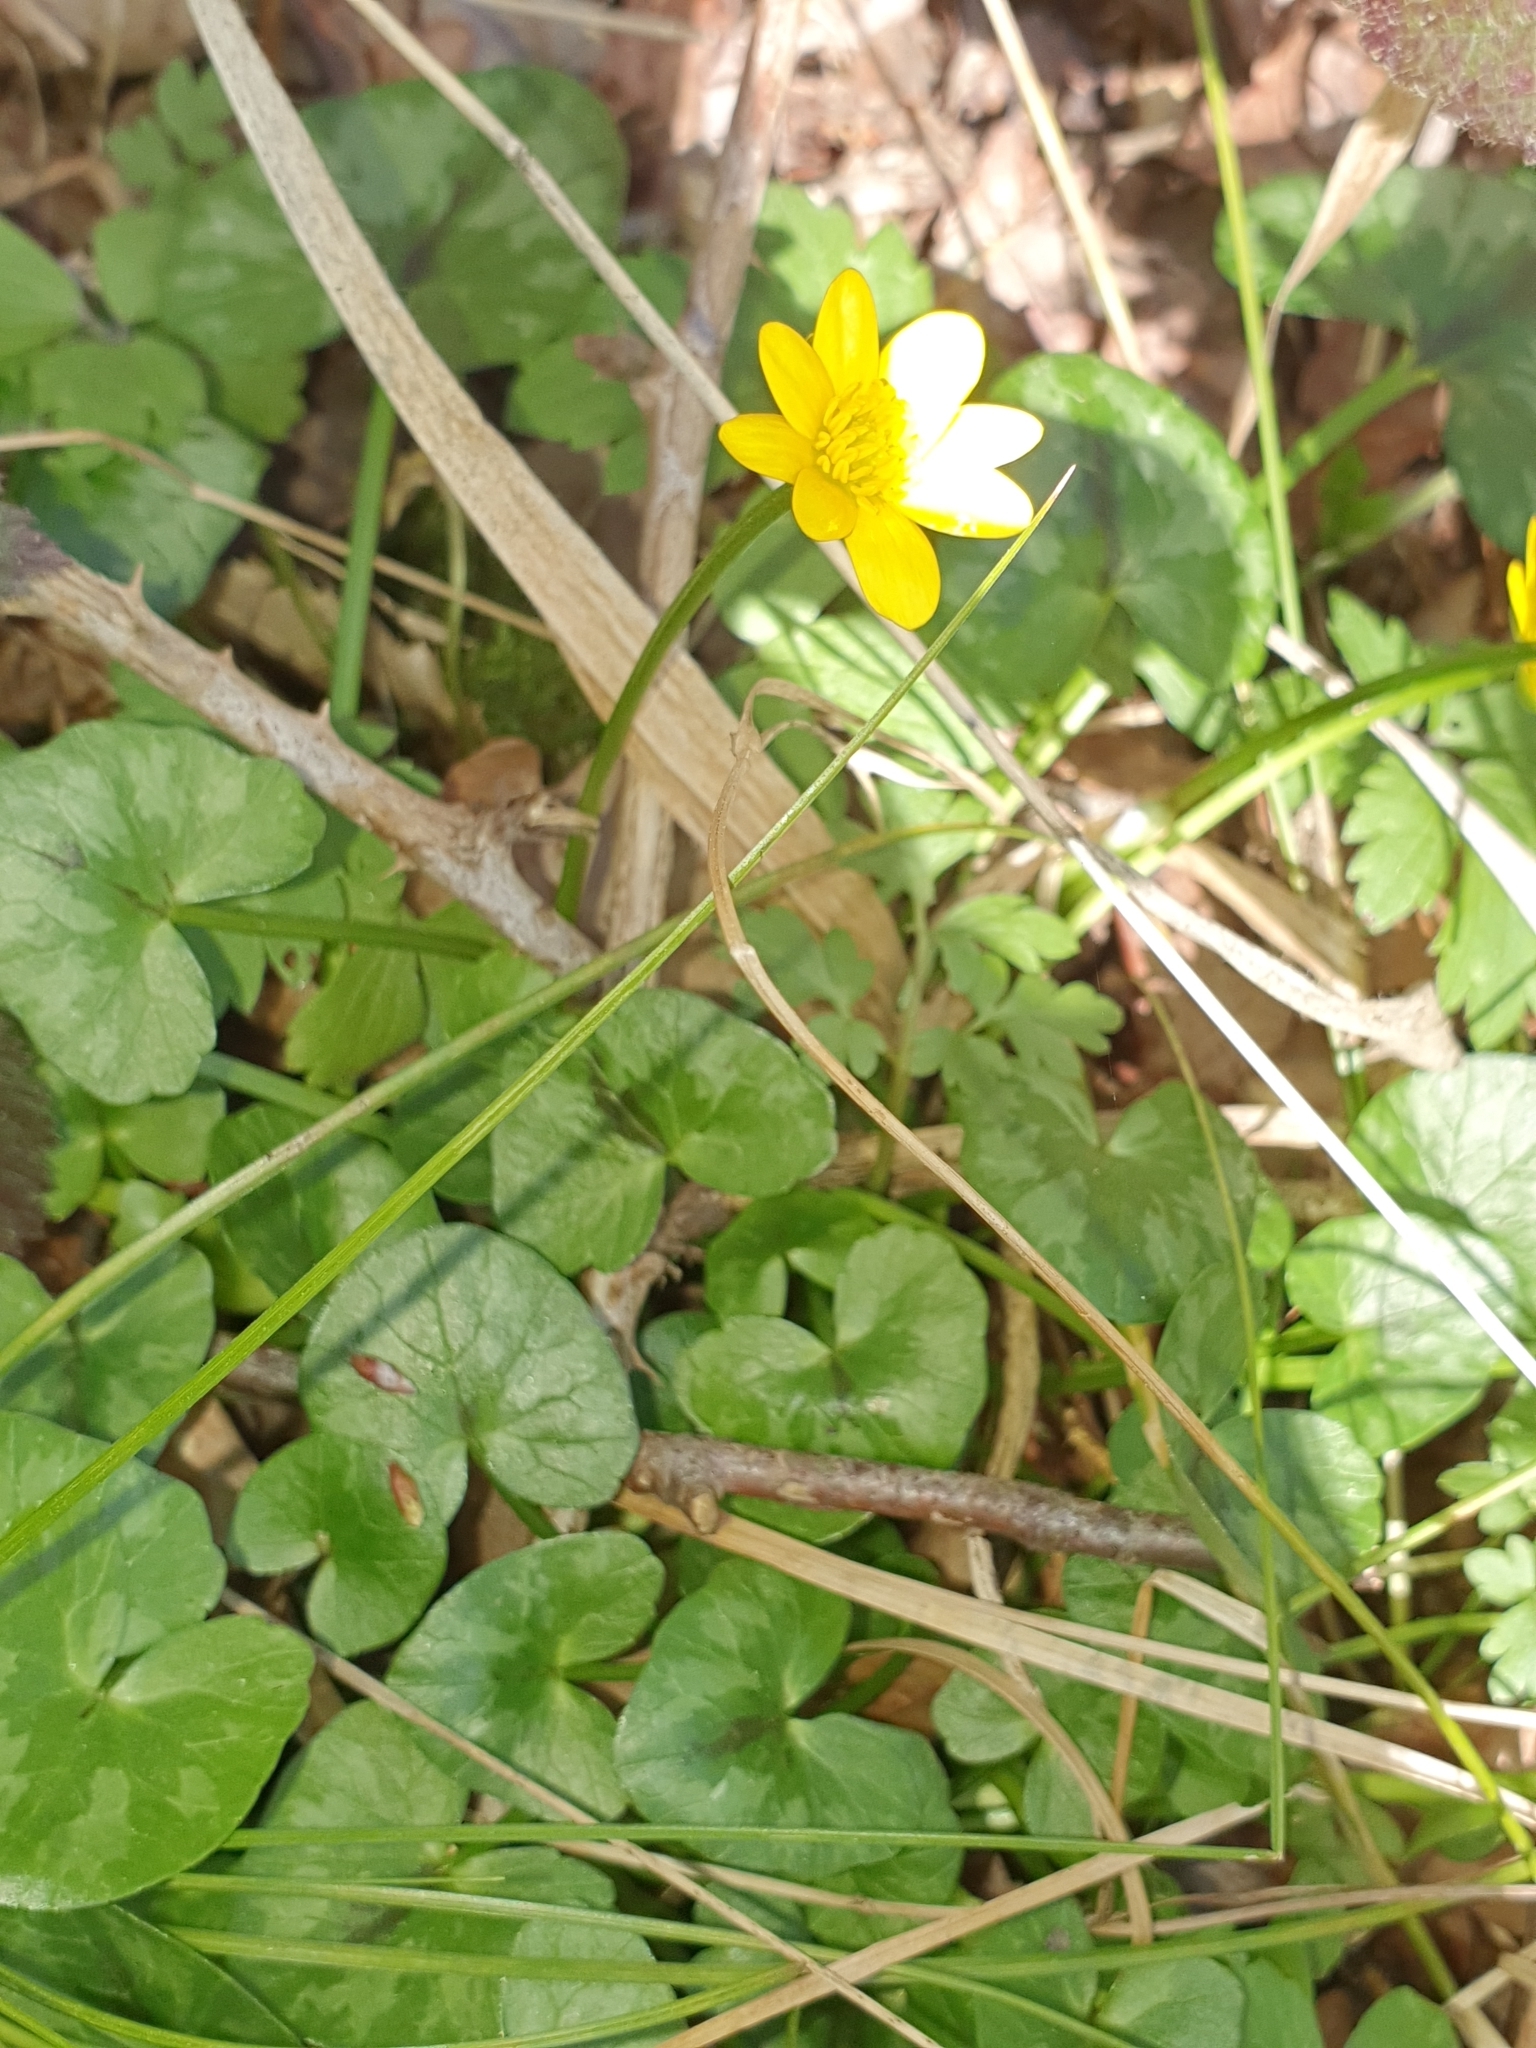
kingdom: Plantae
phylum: Tracheophyta
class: Magnoliopsida
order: Ranunculales
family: Ranunculaceae
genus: Ficaria
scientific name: Ficaria verna
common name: Lesser celandine
